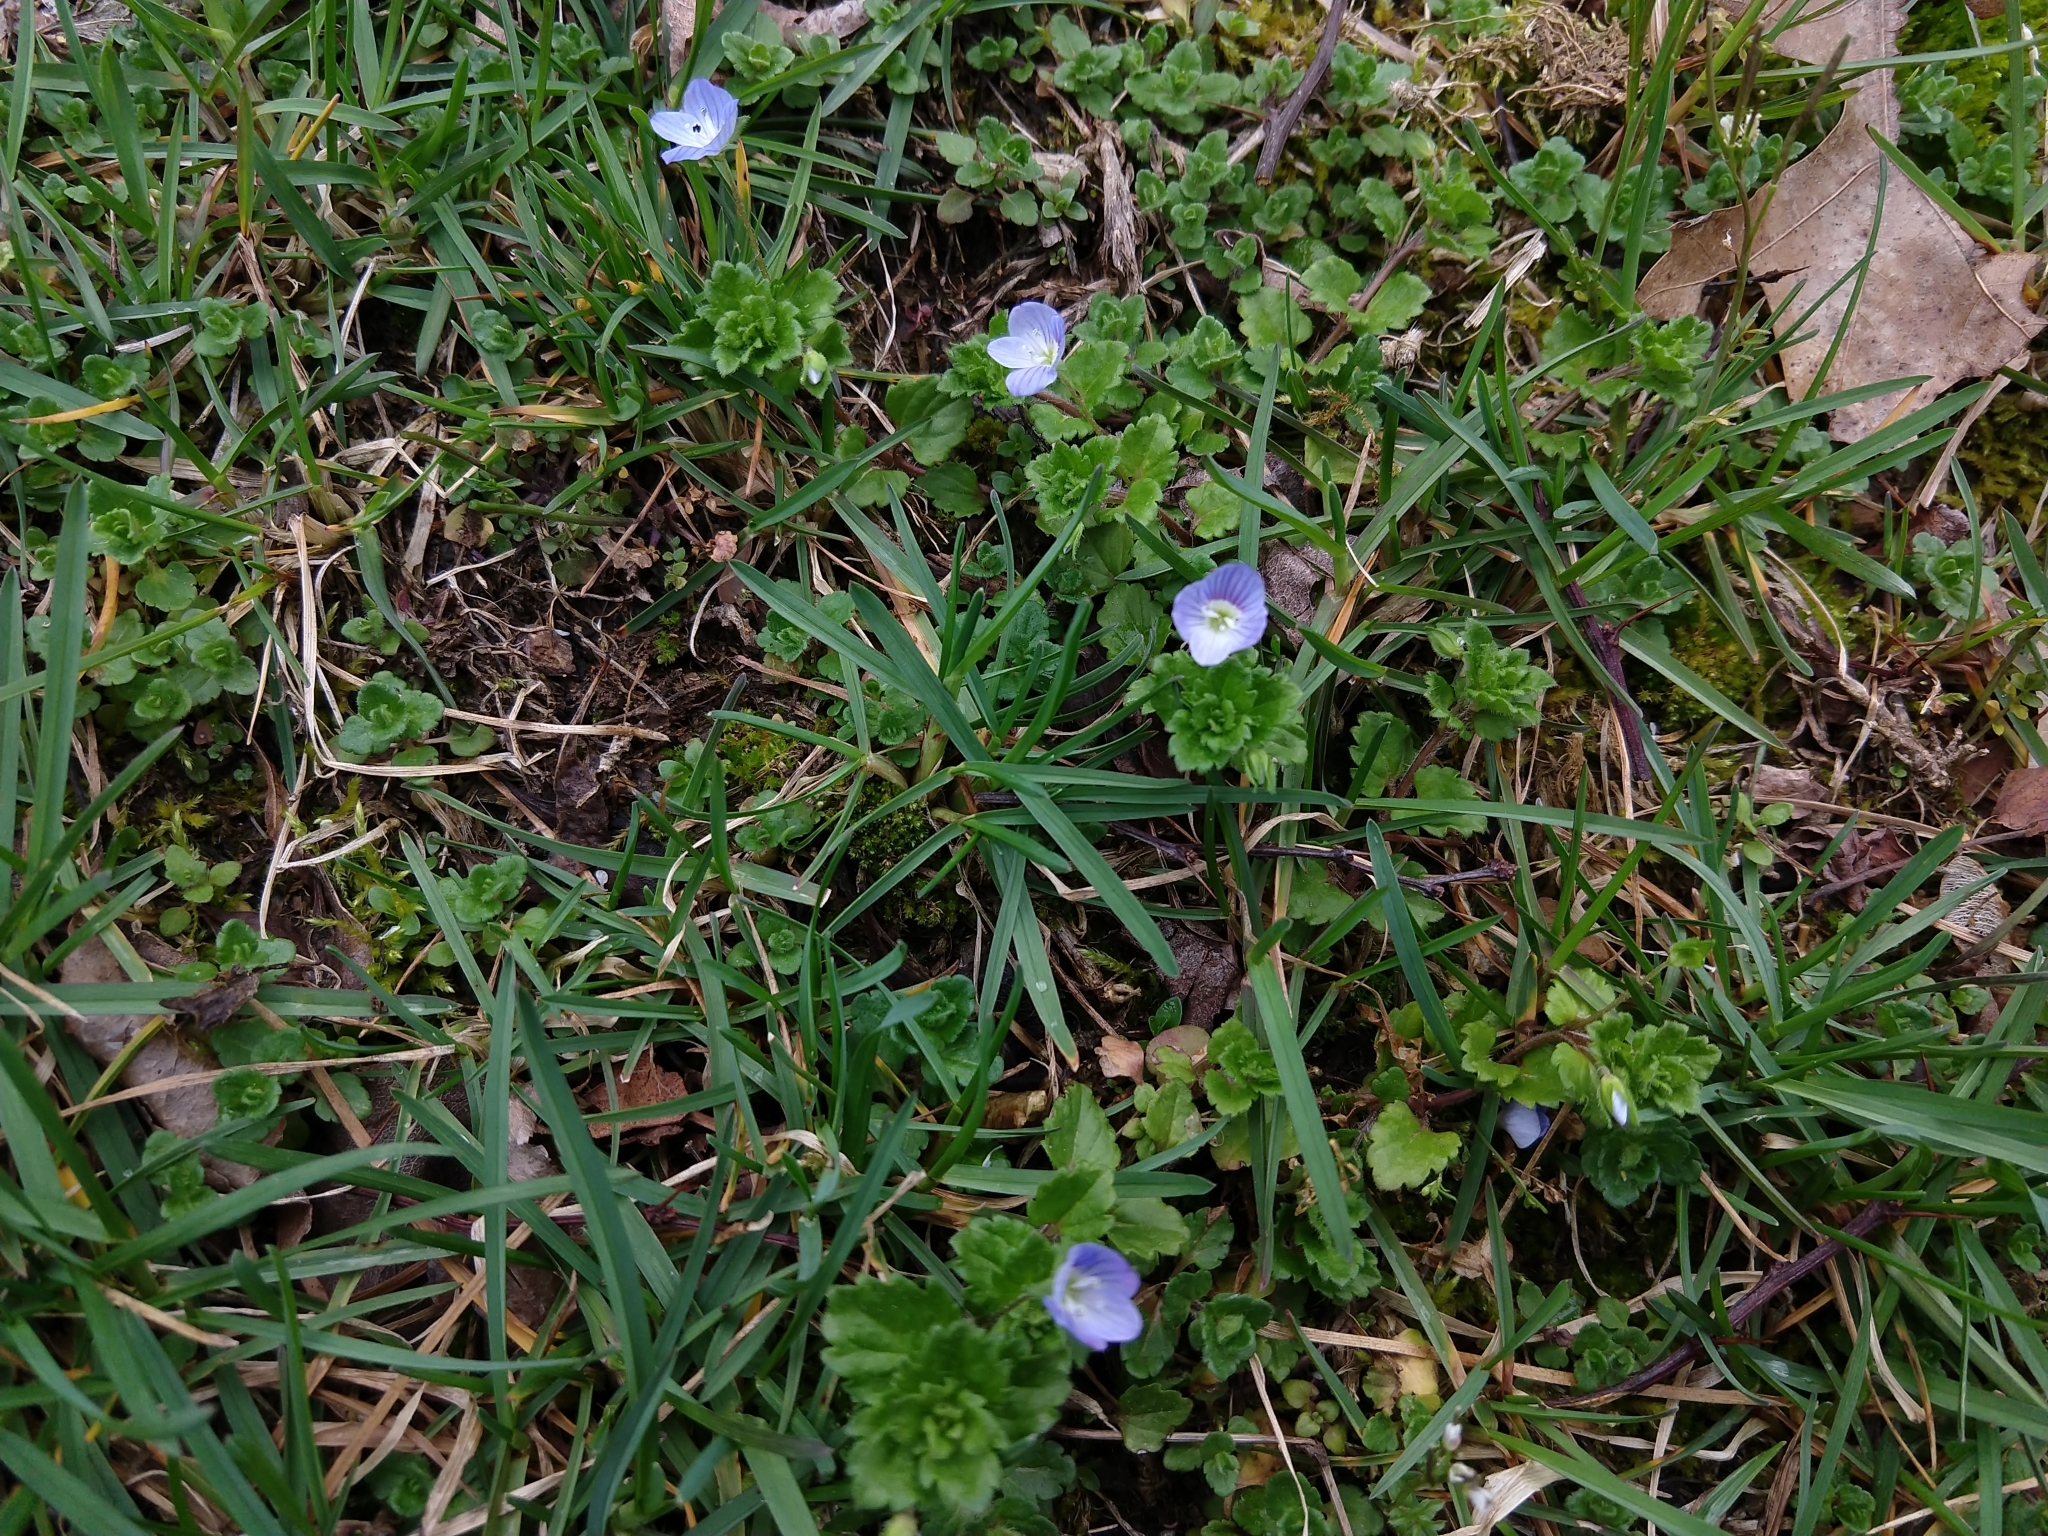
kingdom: Plantae
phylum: Tracheophyta
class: Magnoliopsida
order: Lamiales
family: Plantaginaceae
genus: Veronica
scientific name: Veronica persica
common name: Common field-speedwell
